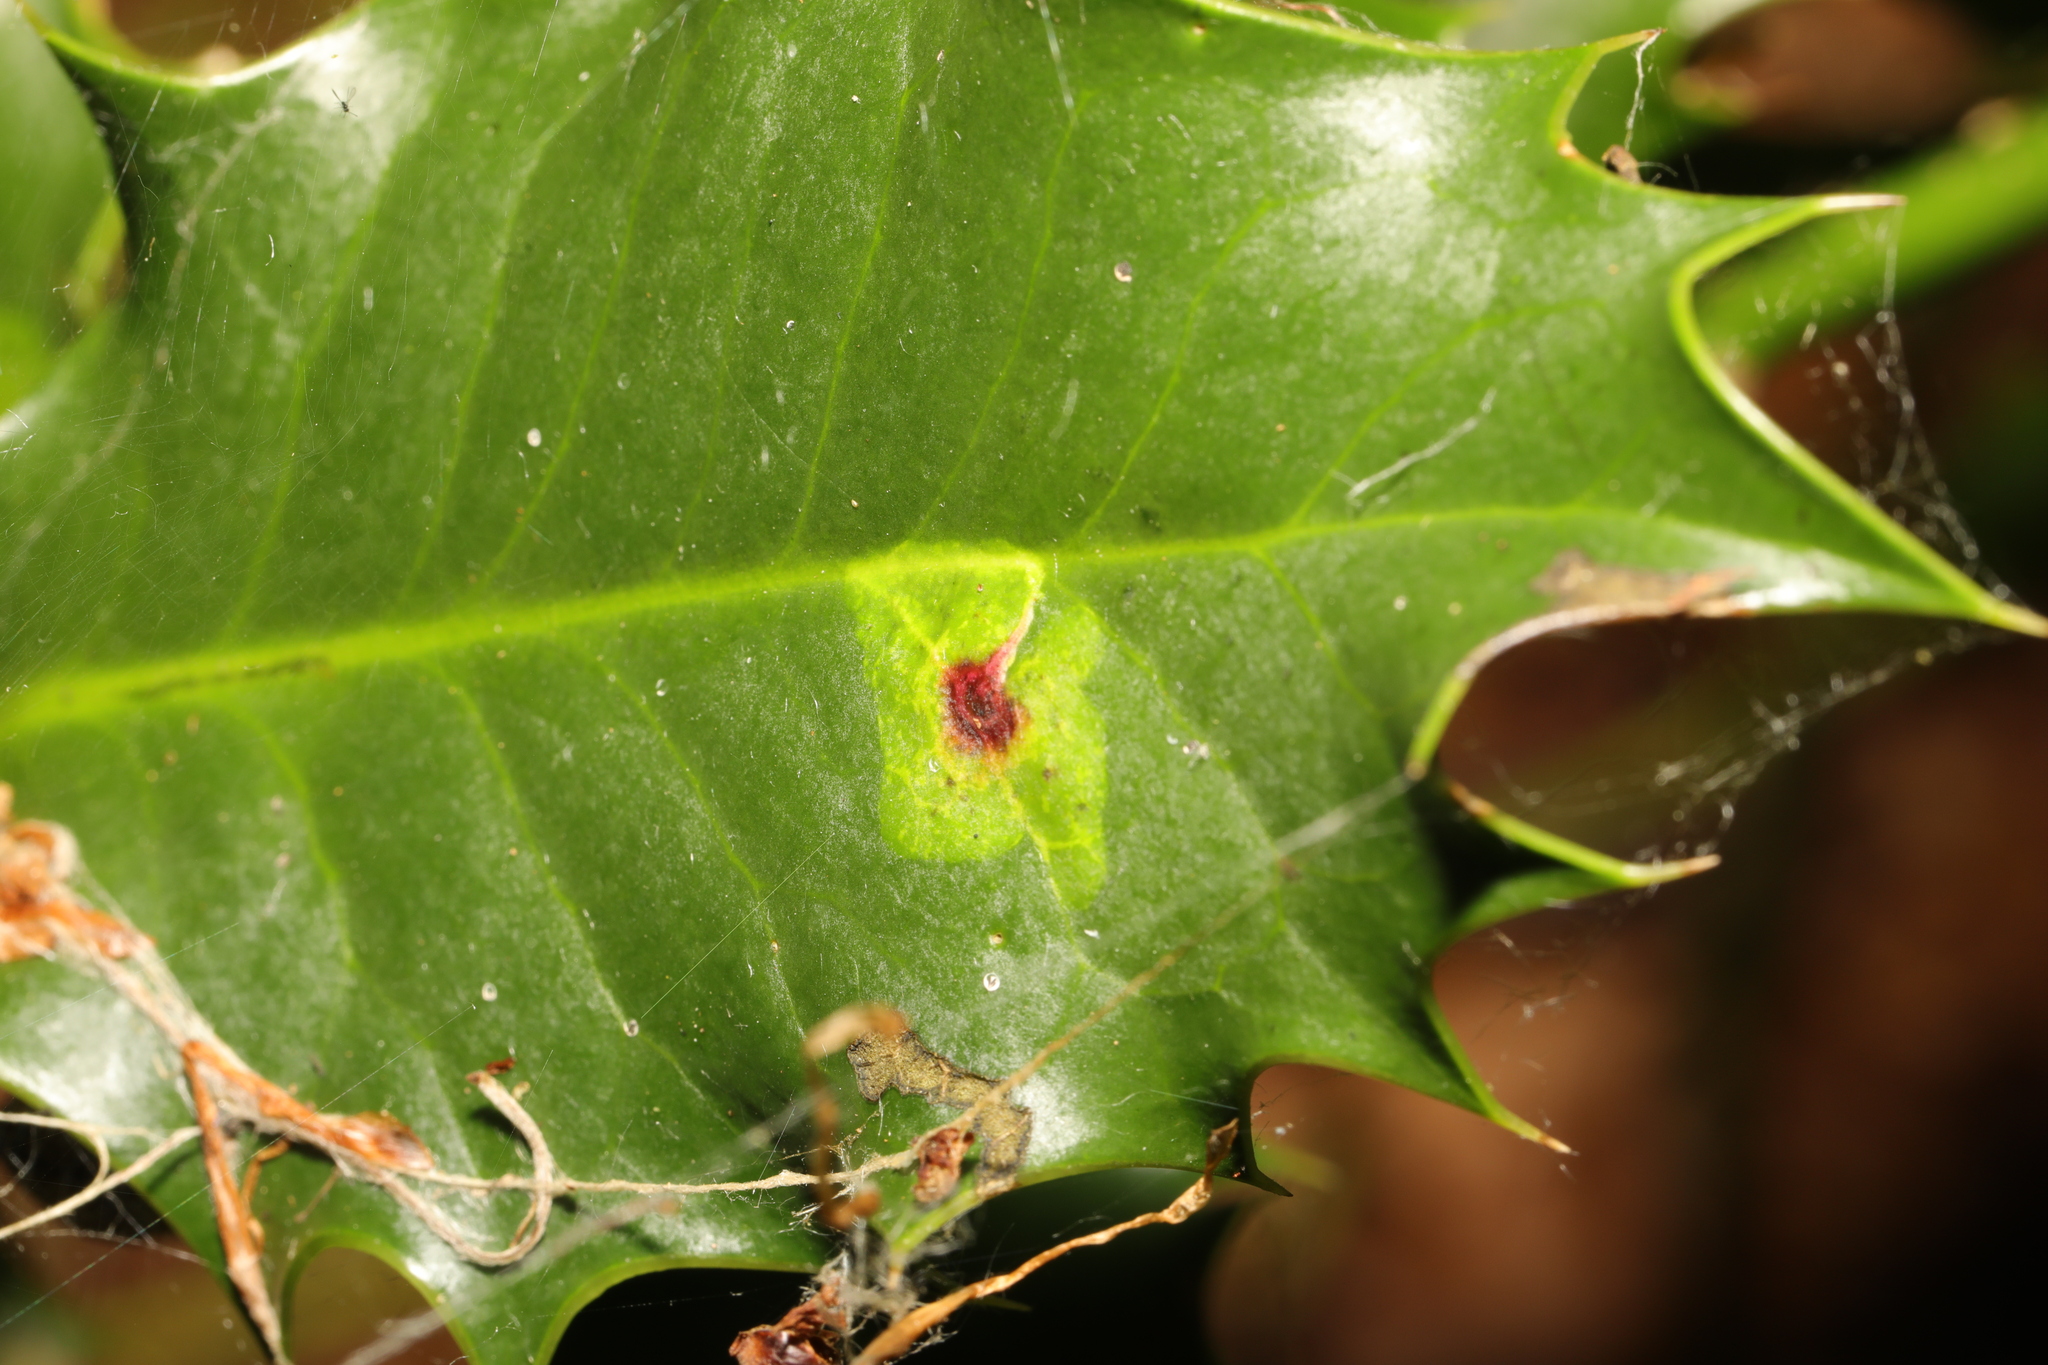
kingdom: Animalia
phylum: Arthropoda
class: Insecta
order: Diptera
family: Agromyzidae
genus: Phytomyza
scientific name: Phytomyza ilicis
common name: Holly leafminer
